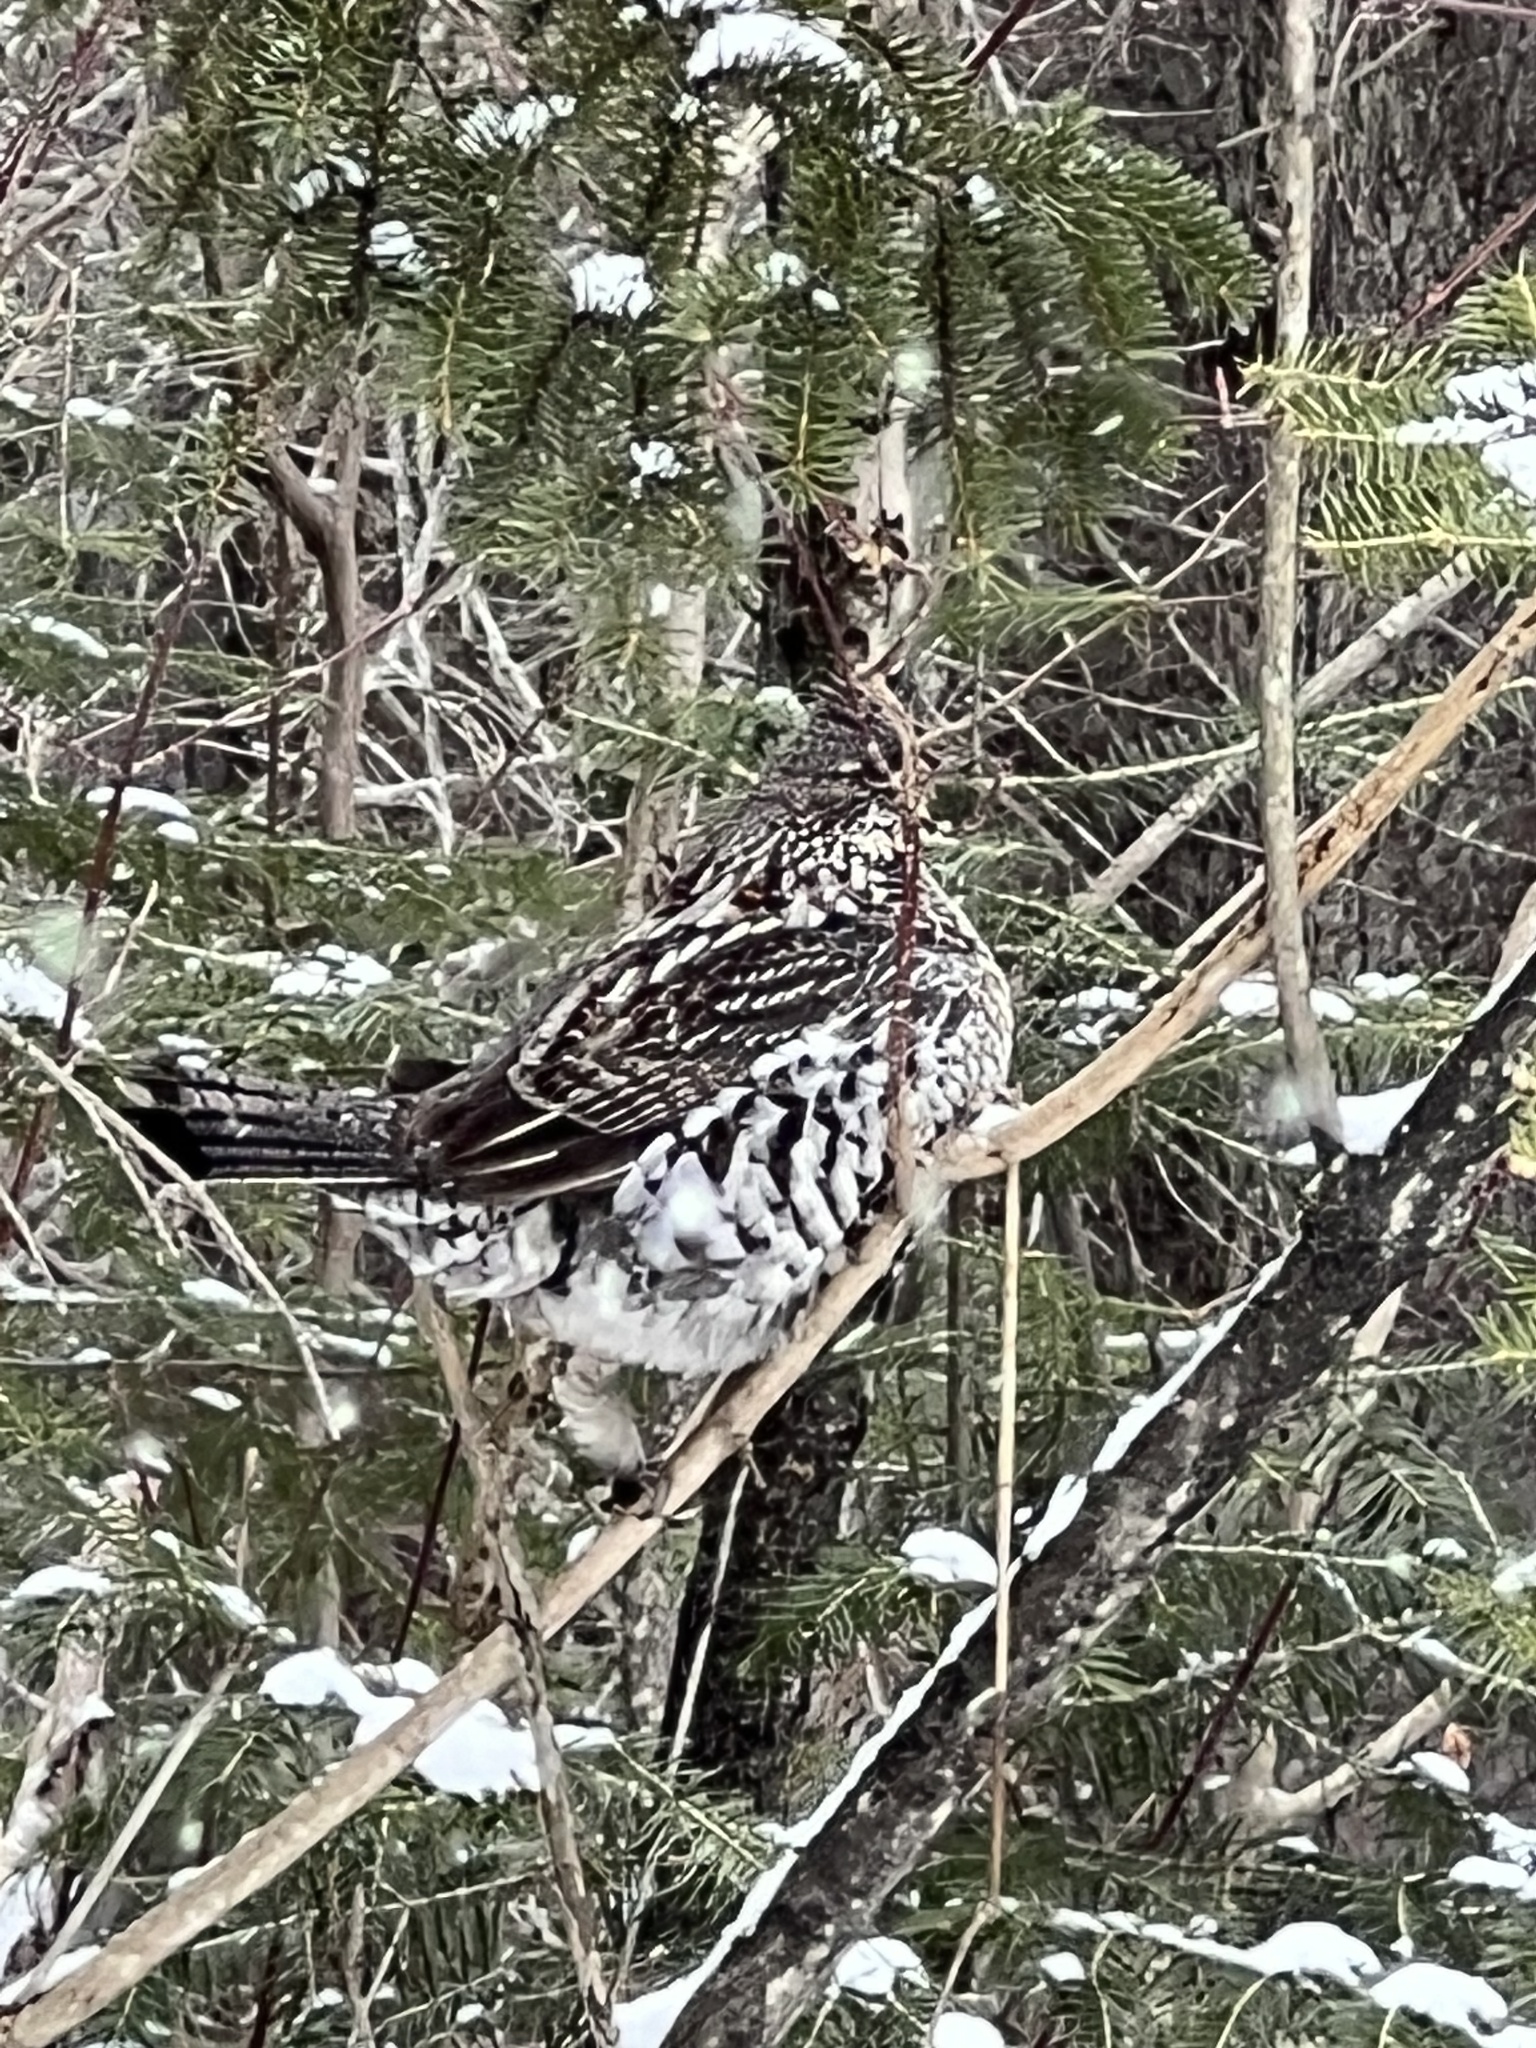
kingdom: Animalia
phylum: Chordata
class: Aves
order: Galliformes
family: Phasianidae
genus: Bonasa
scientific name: Bonasa umbellus
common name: Ruffed grouse
